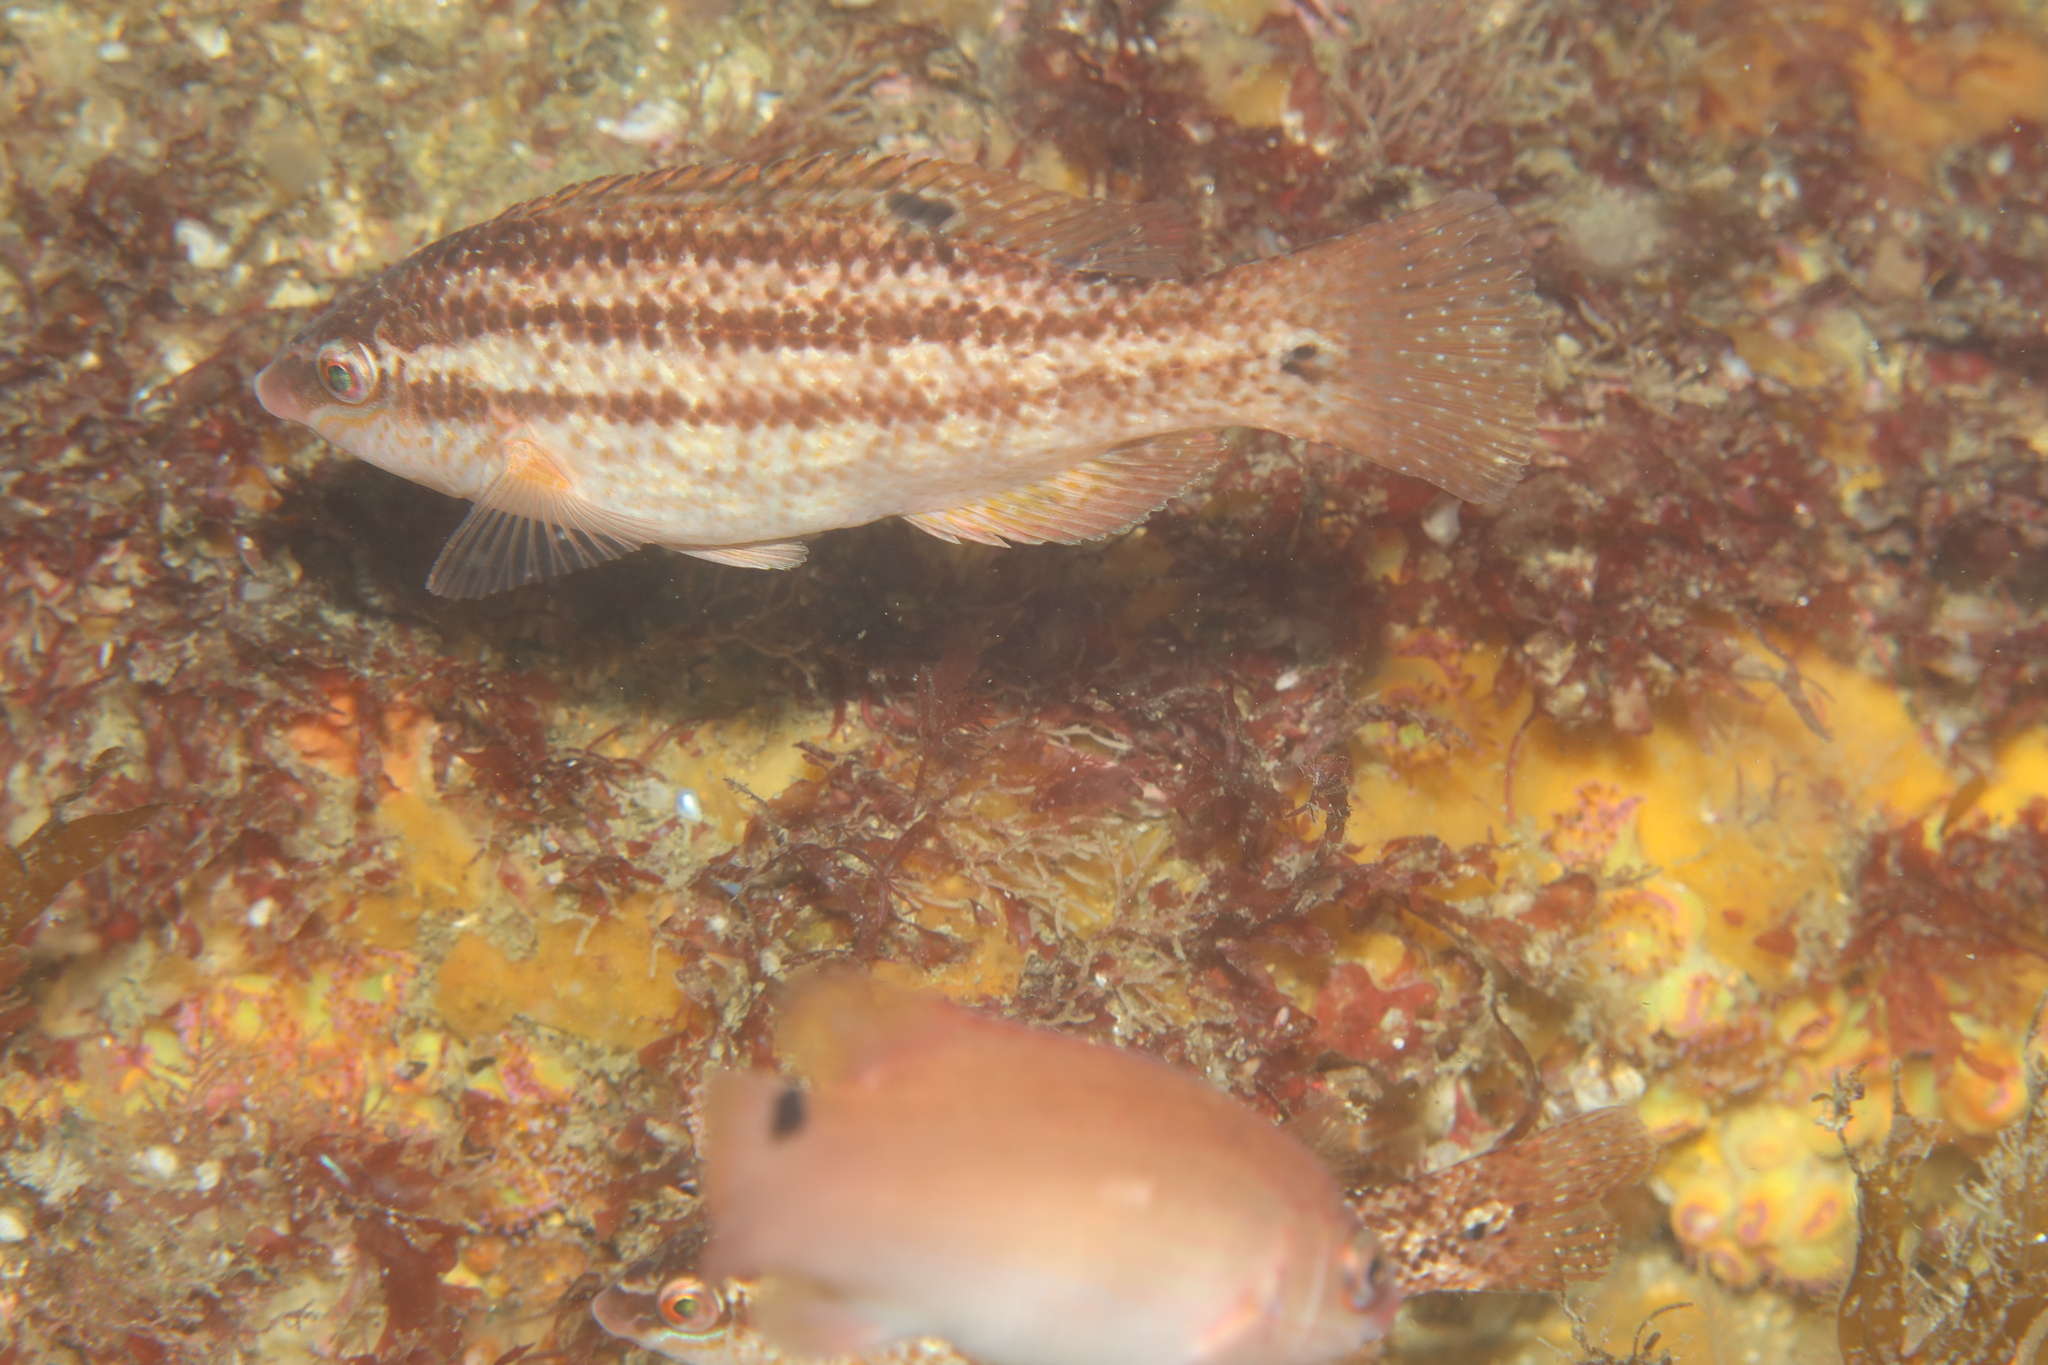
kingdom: Animalia
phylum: Chordata
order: Perciformes
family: Labridae
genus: Symphodus
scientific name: Symphodus bailloni
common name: Baillon's wrasse
